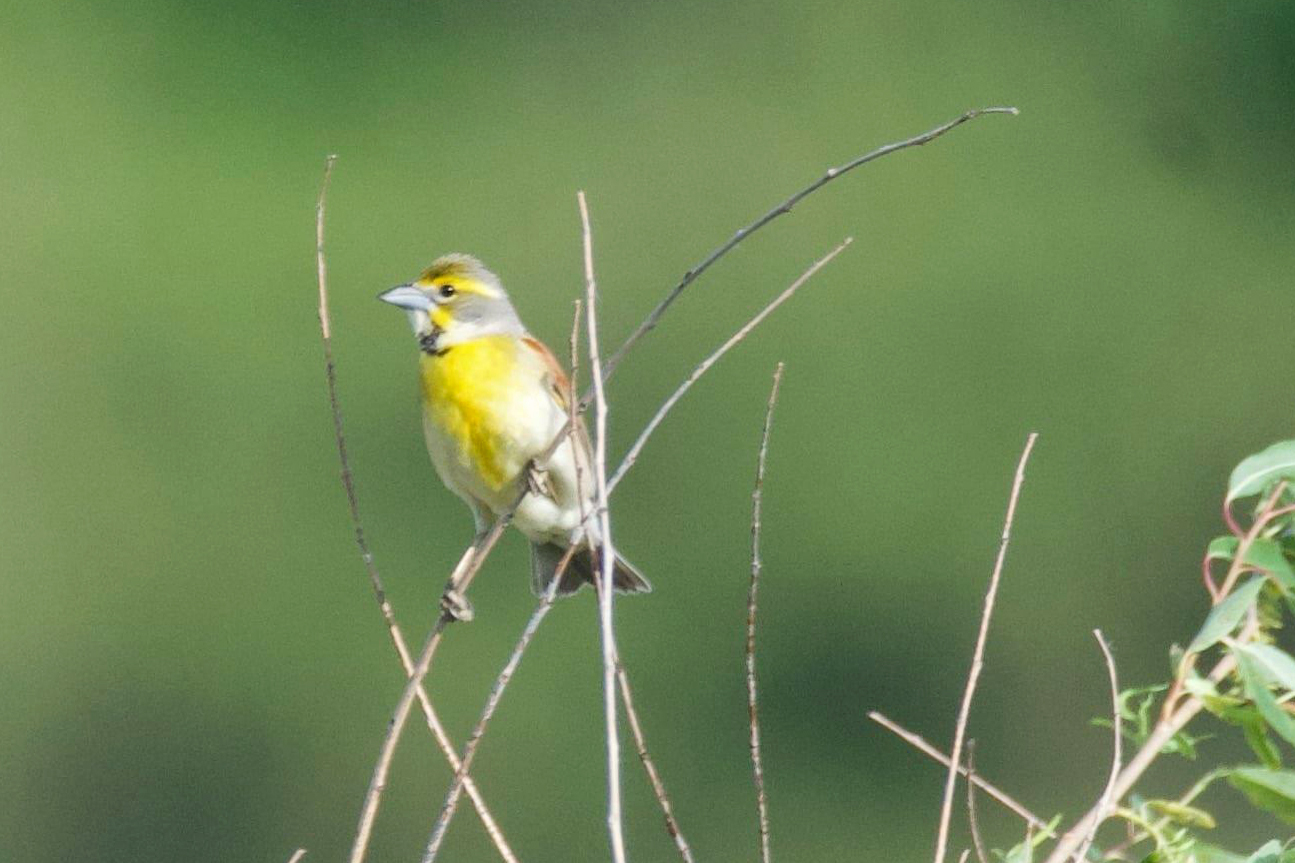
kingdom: Animalia
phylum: Chordata
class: Aves
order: Passeriformes
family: Cardinalidae
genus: Spiza
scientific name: Spiza americana
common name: Dickcissel
